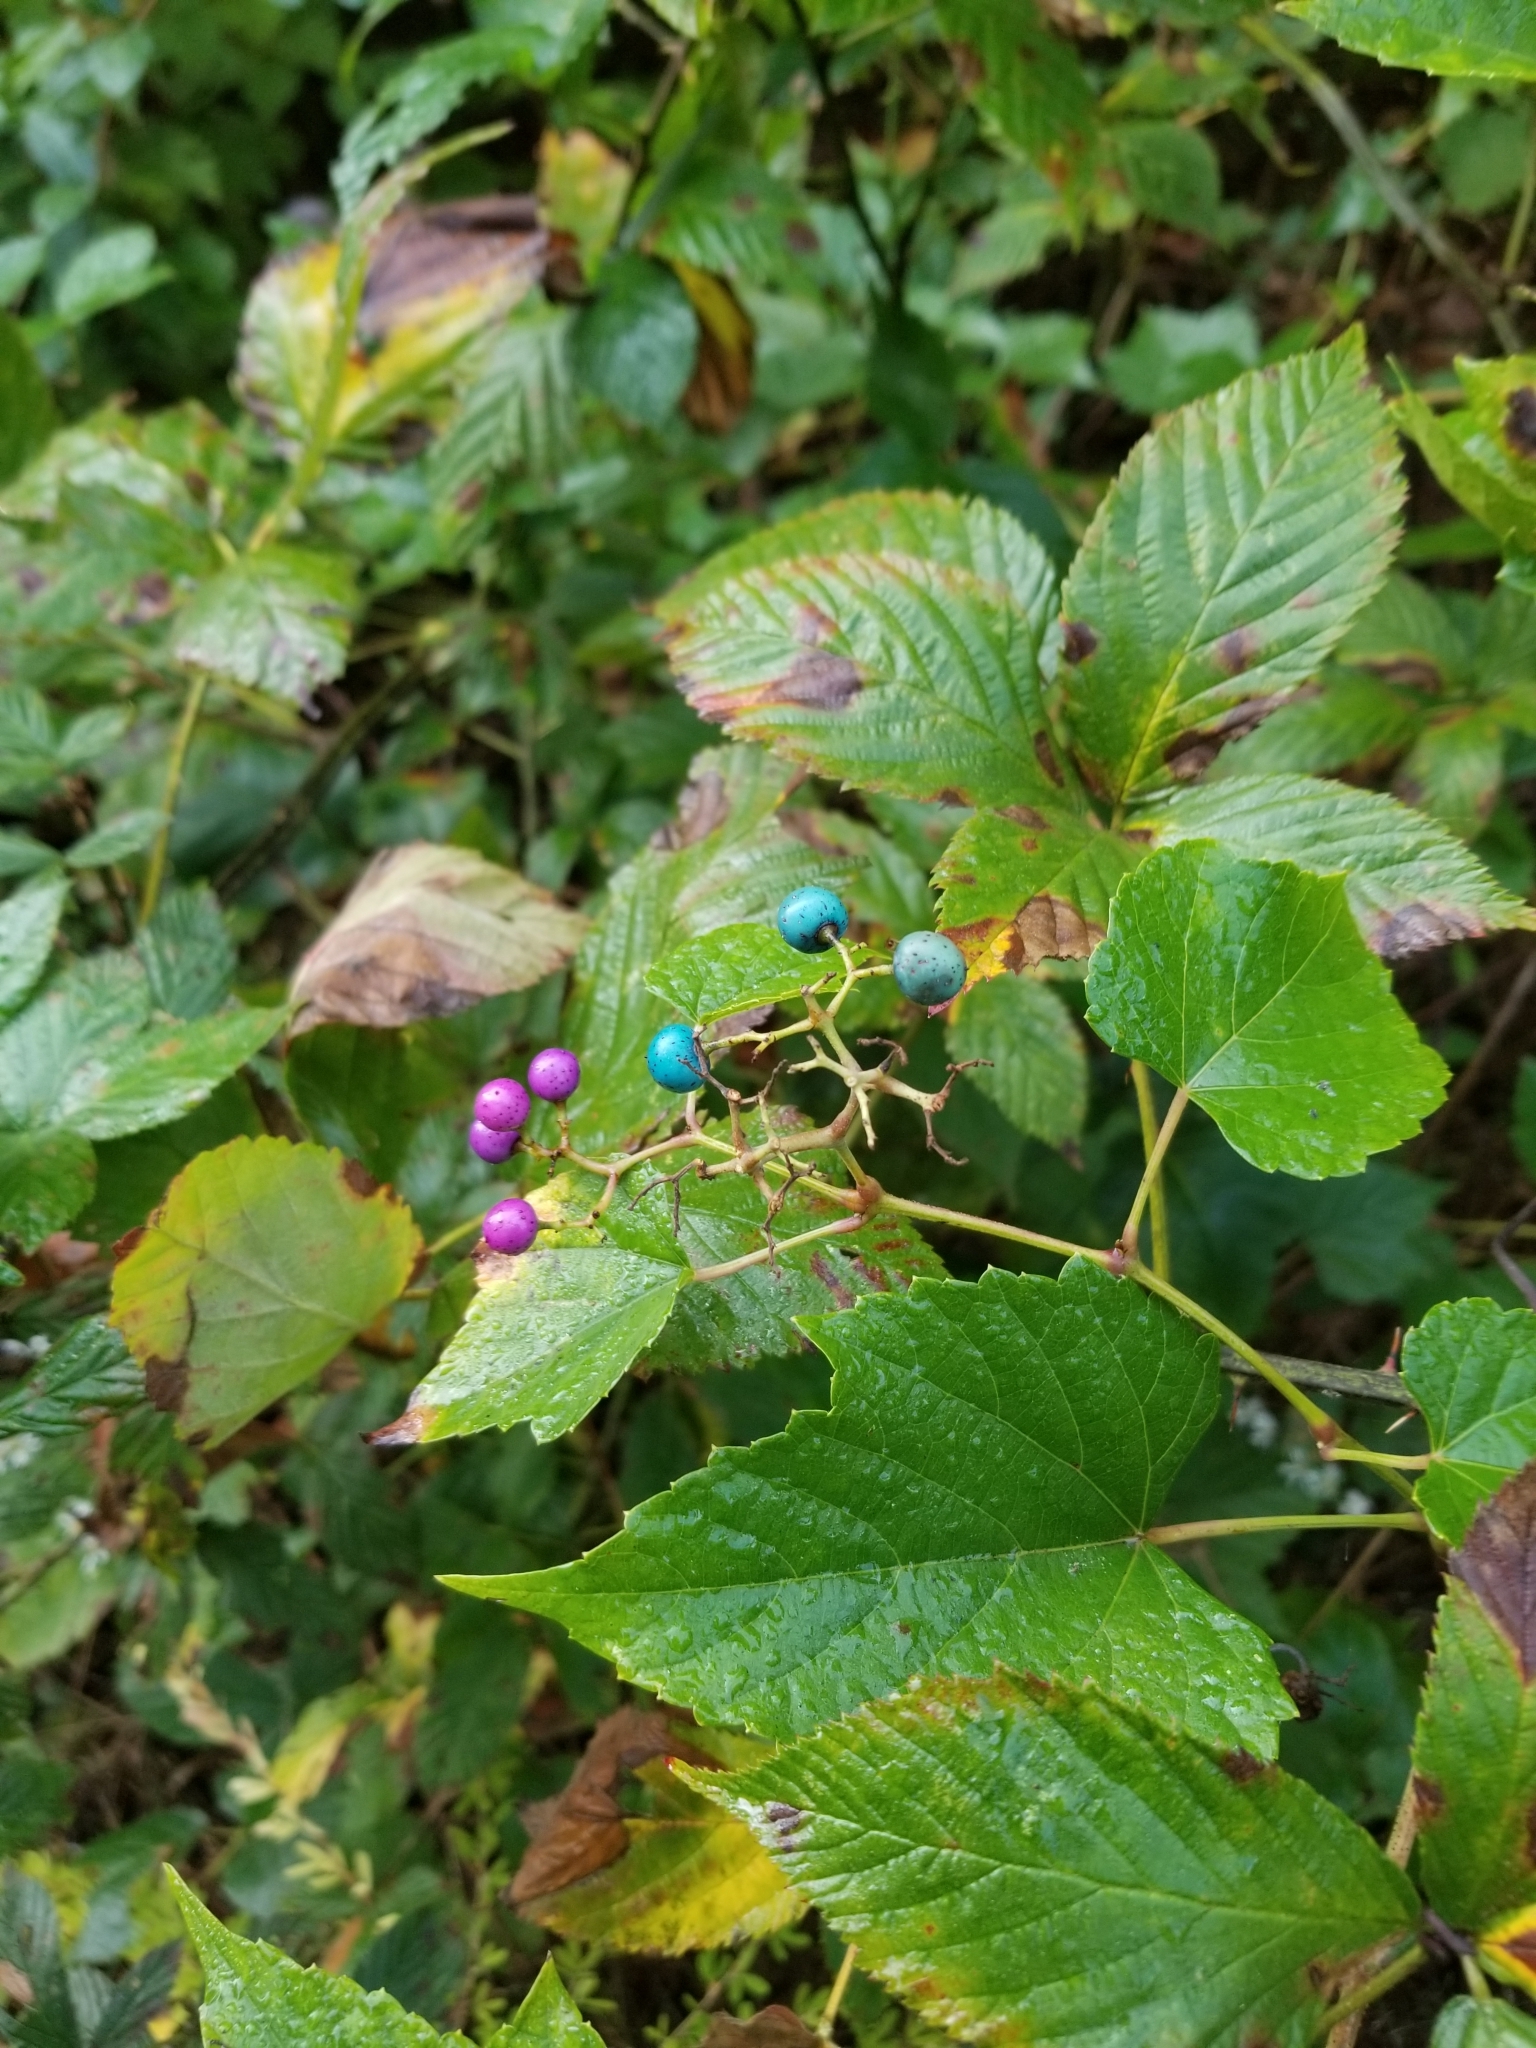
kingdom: Plantae
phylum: Tracheophyta
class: Magnoliopsida
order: Vitales
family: Vitaceae
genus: Ampelopsis
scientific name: Ampelopsis glandulosa
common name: Amur peppervine
